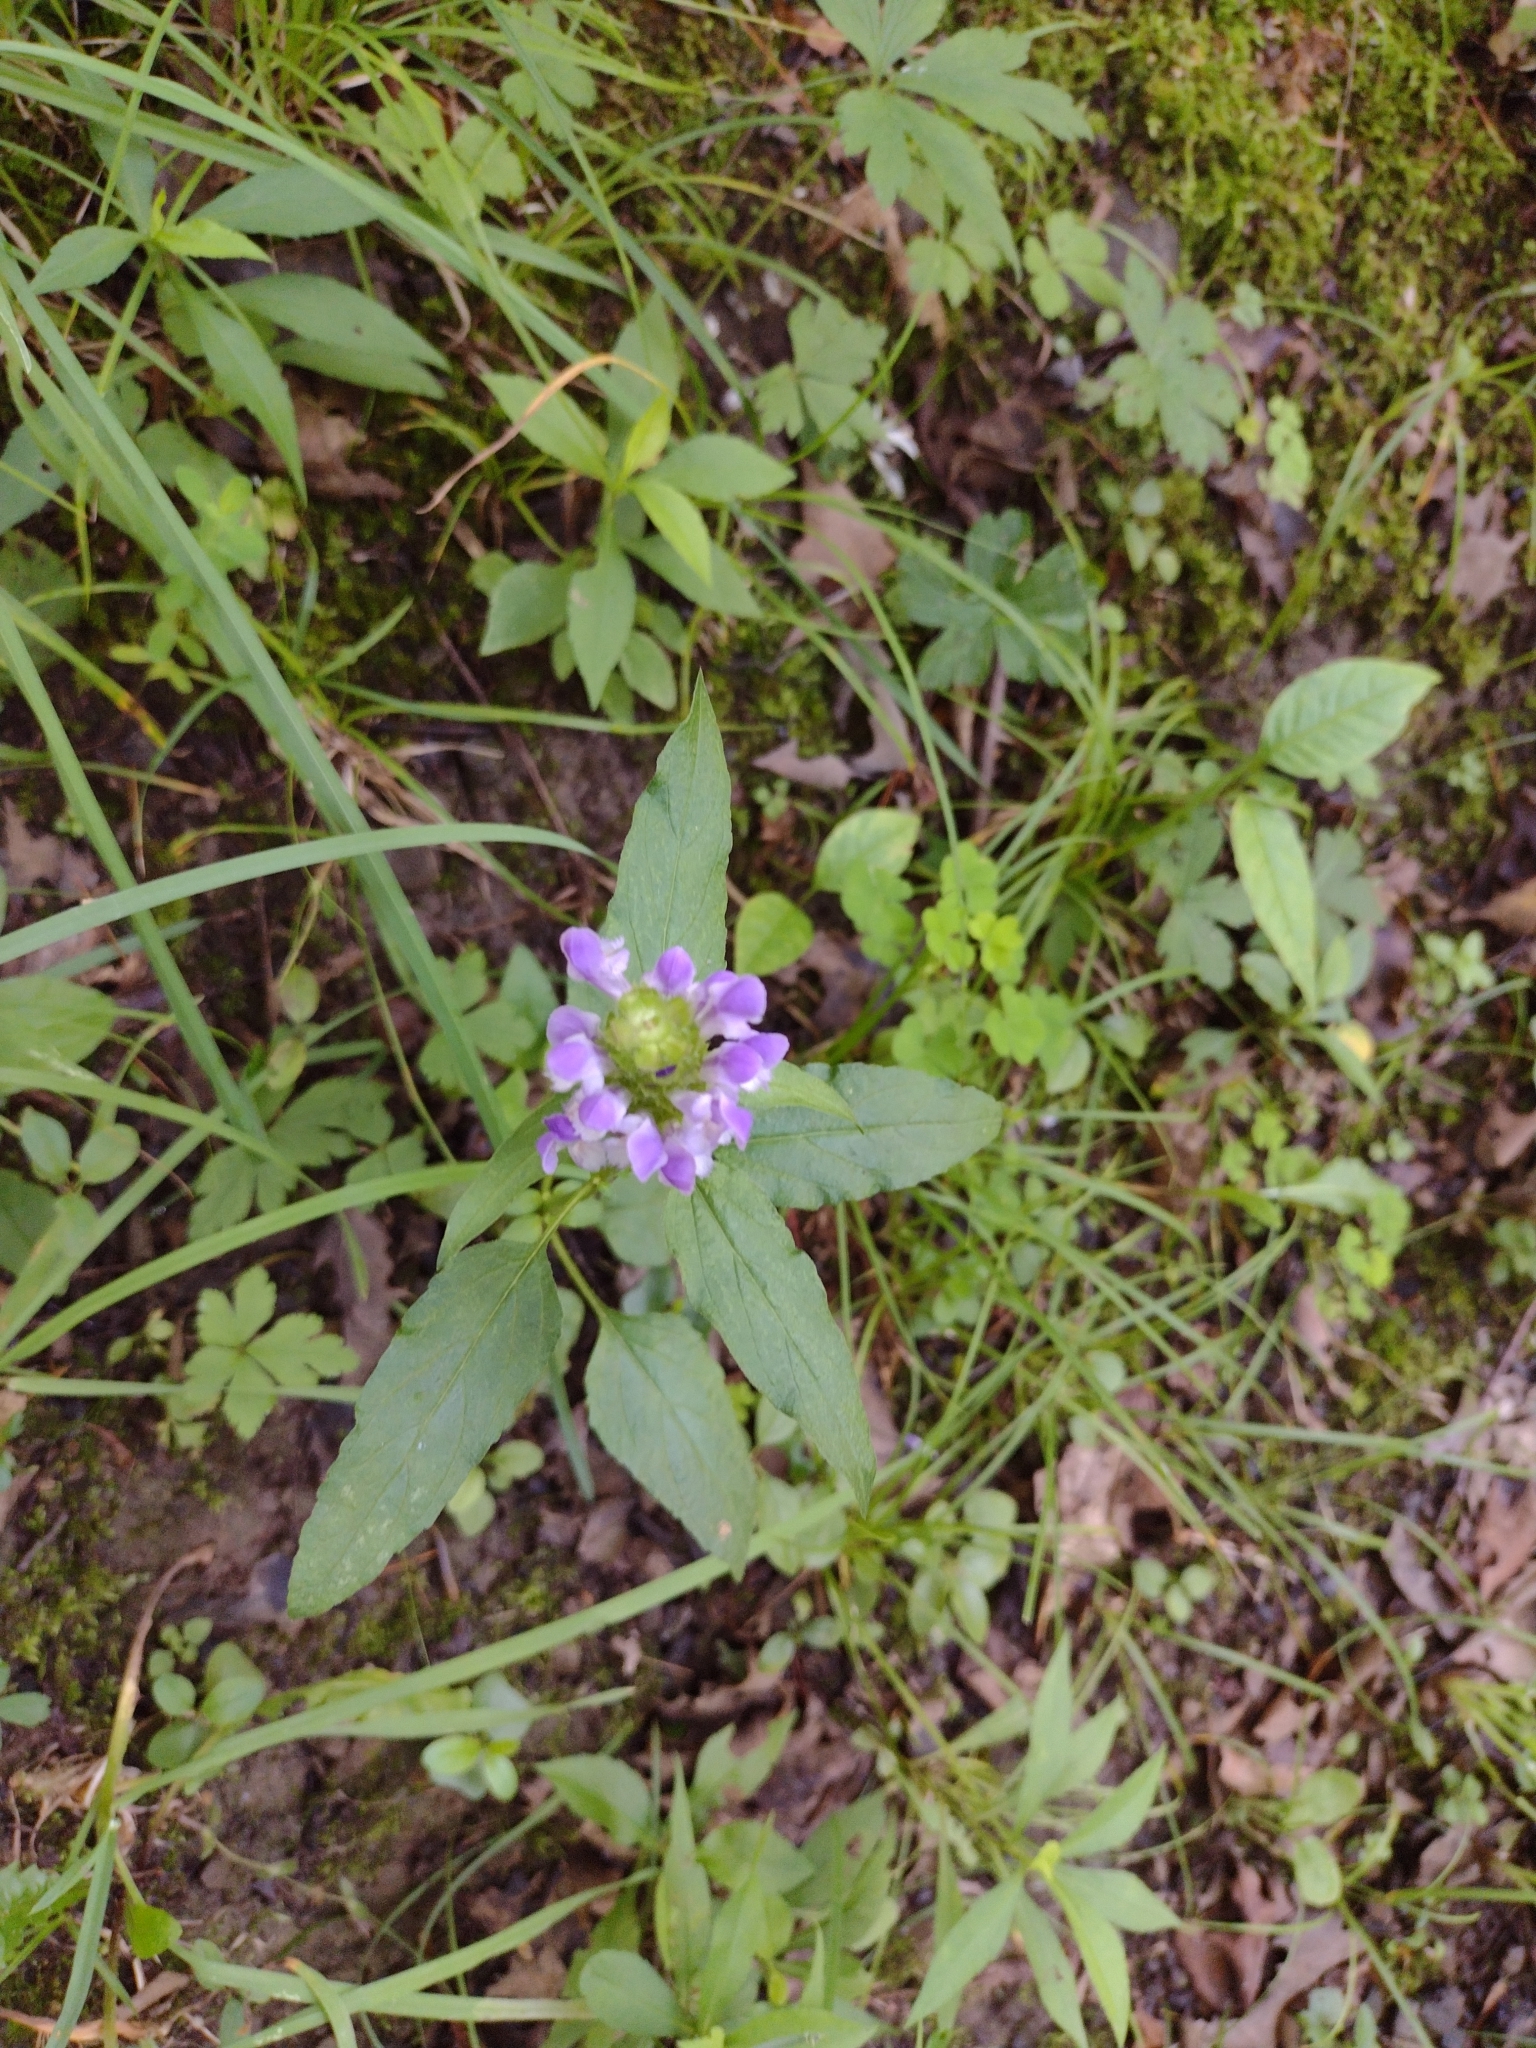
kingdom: Plantae
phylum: Tracheophyta
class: Magnoliopsida
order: Lamiales
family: Lamiaceae
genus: Prunella
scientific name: Prunella vulgaris
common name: Heal-all
